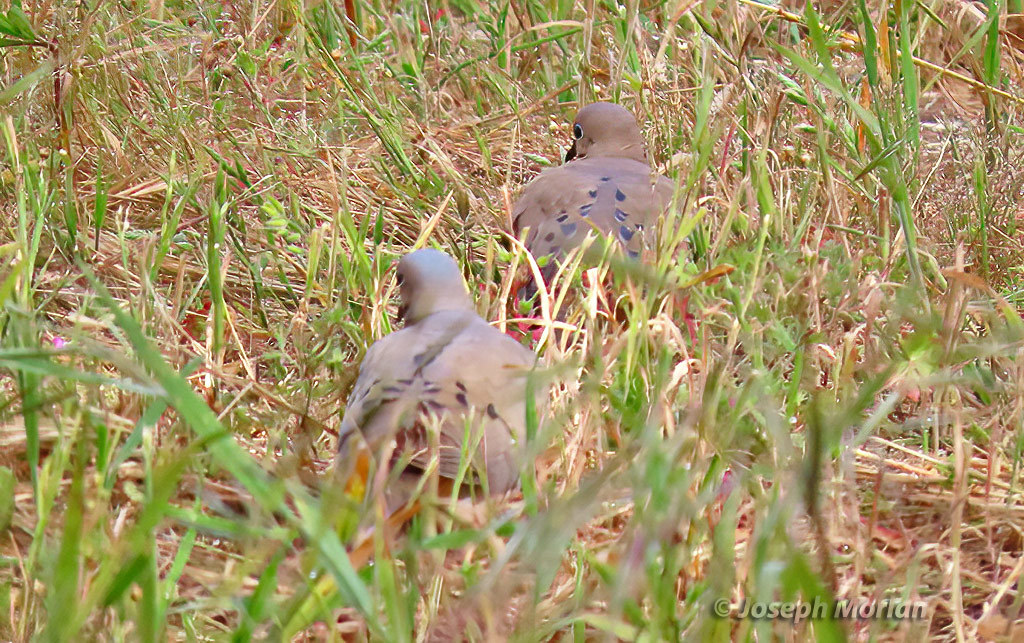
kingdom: Animalia
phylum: Chordata
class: Aves
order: Columbiformes
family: Columbidae
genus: Zenaida
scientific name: Zenaida macroura
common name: Mourning dove
